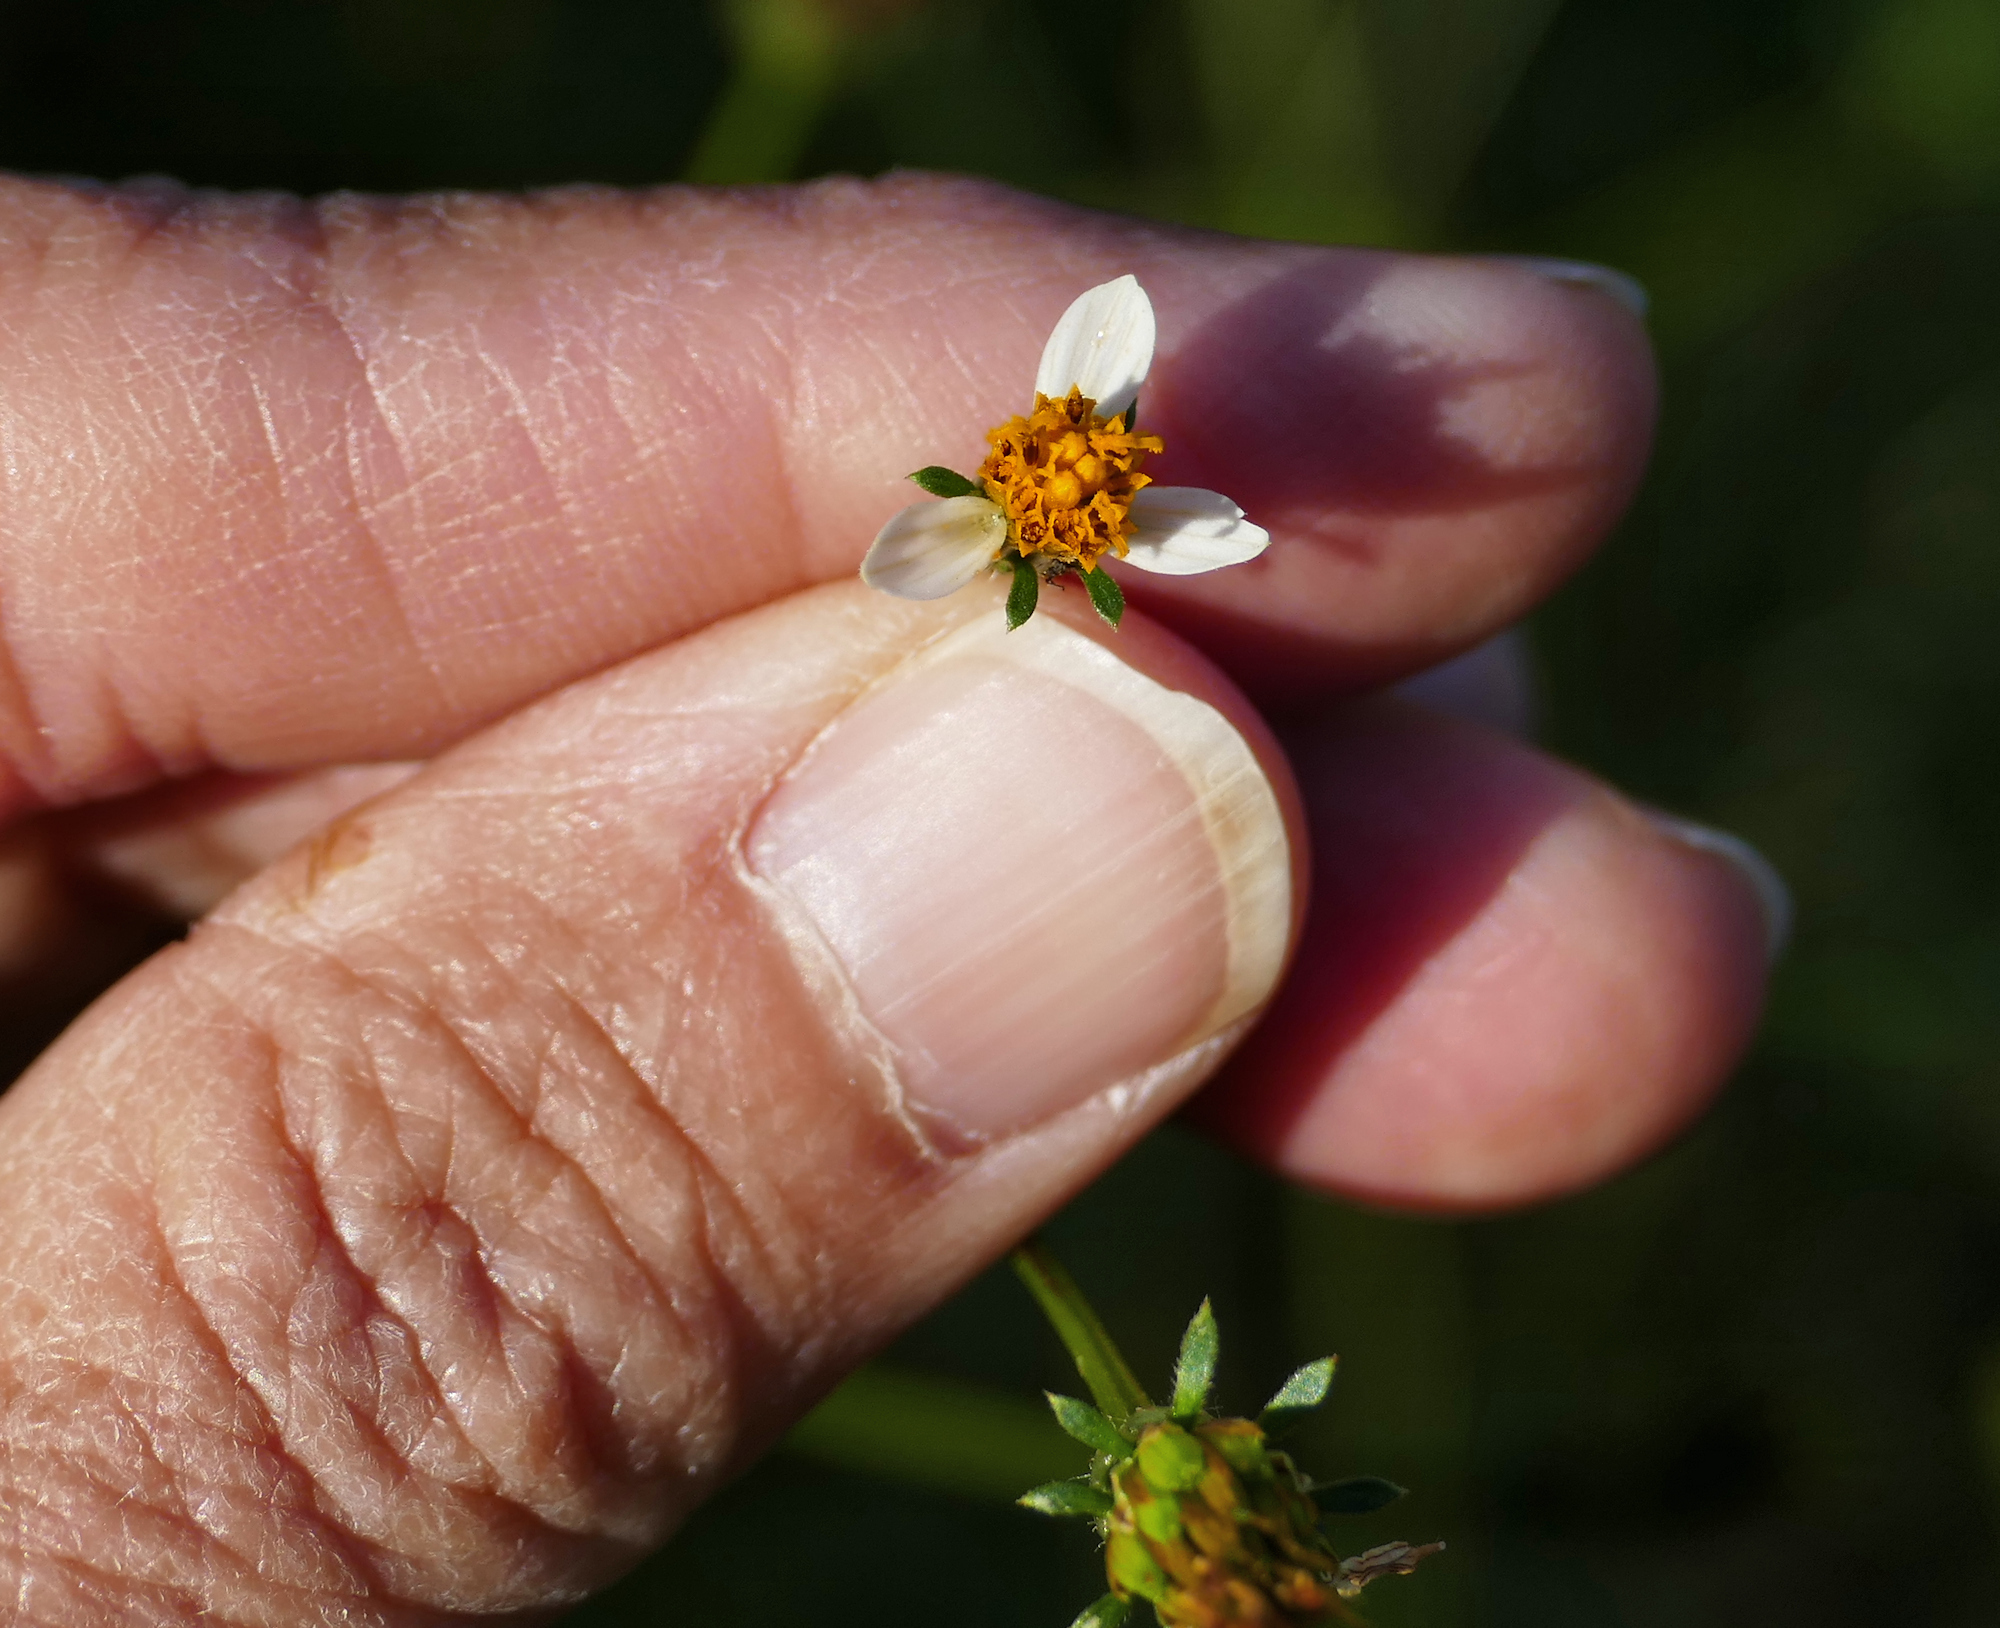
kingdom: Plantae
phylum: Tracheophyta
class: Magnoliopsida
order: Asterales
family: Asteraceae
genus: Bidens
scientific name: Bidens bigelovii
